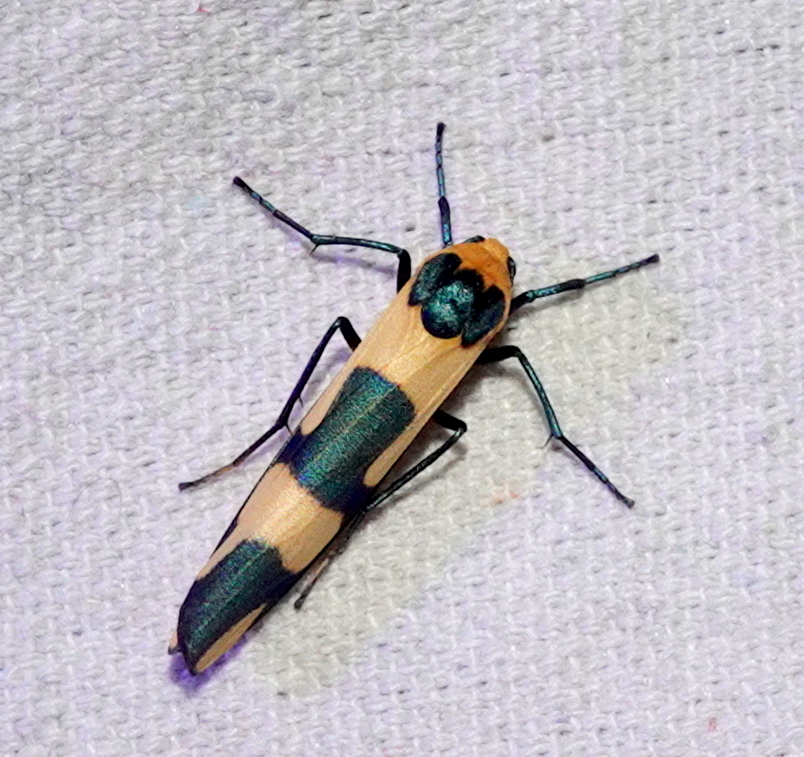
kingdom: Animalia
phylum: Arthropoda
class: Insecta
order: Lepidoptera
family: Erebidae
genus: Oeonistis
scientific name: Oeonistis entella
